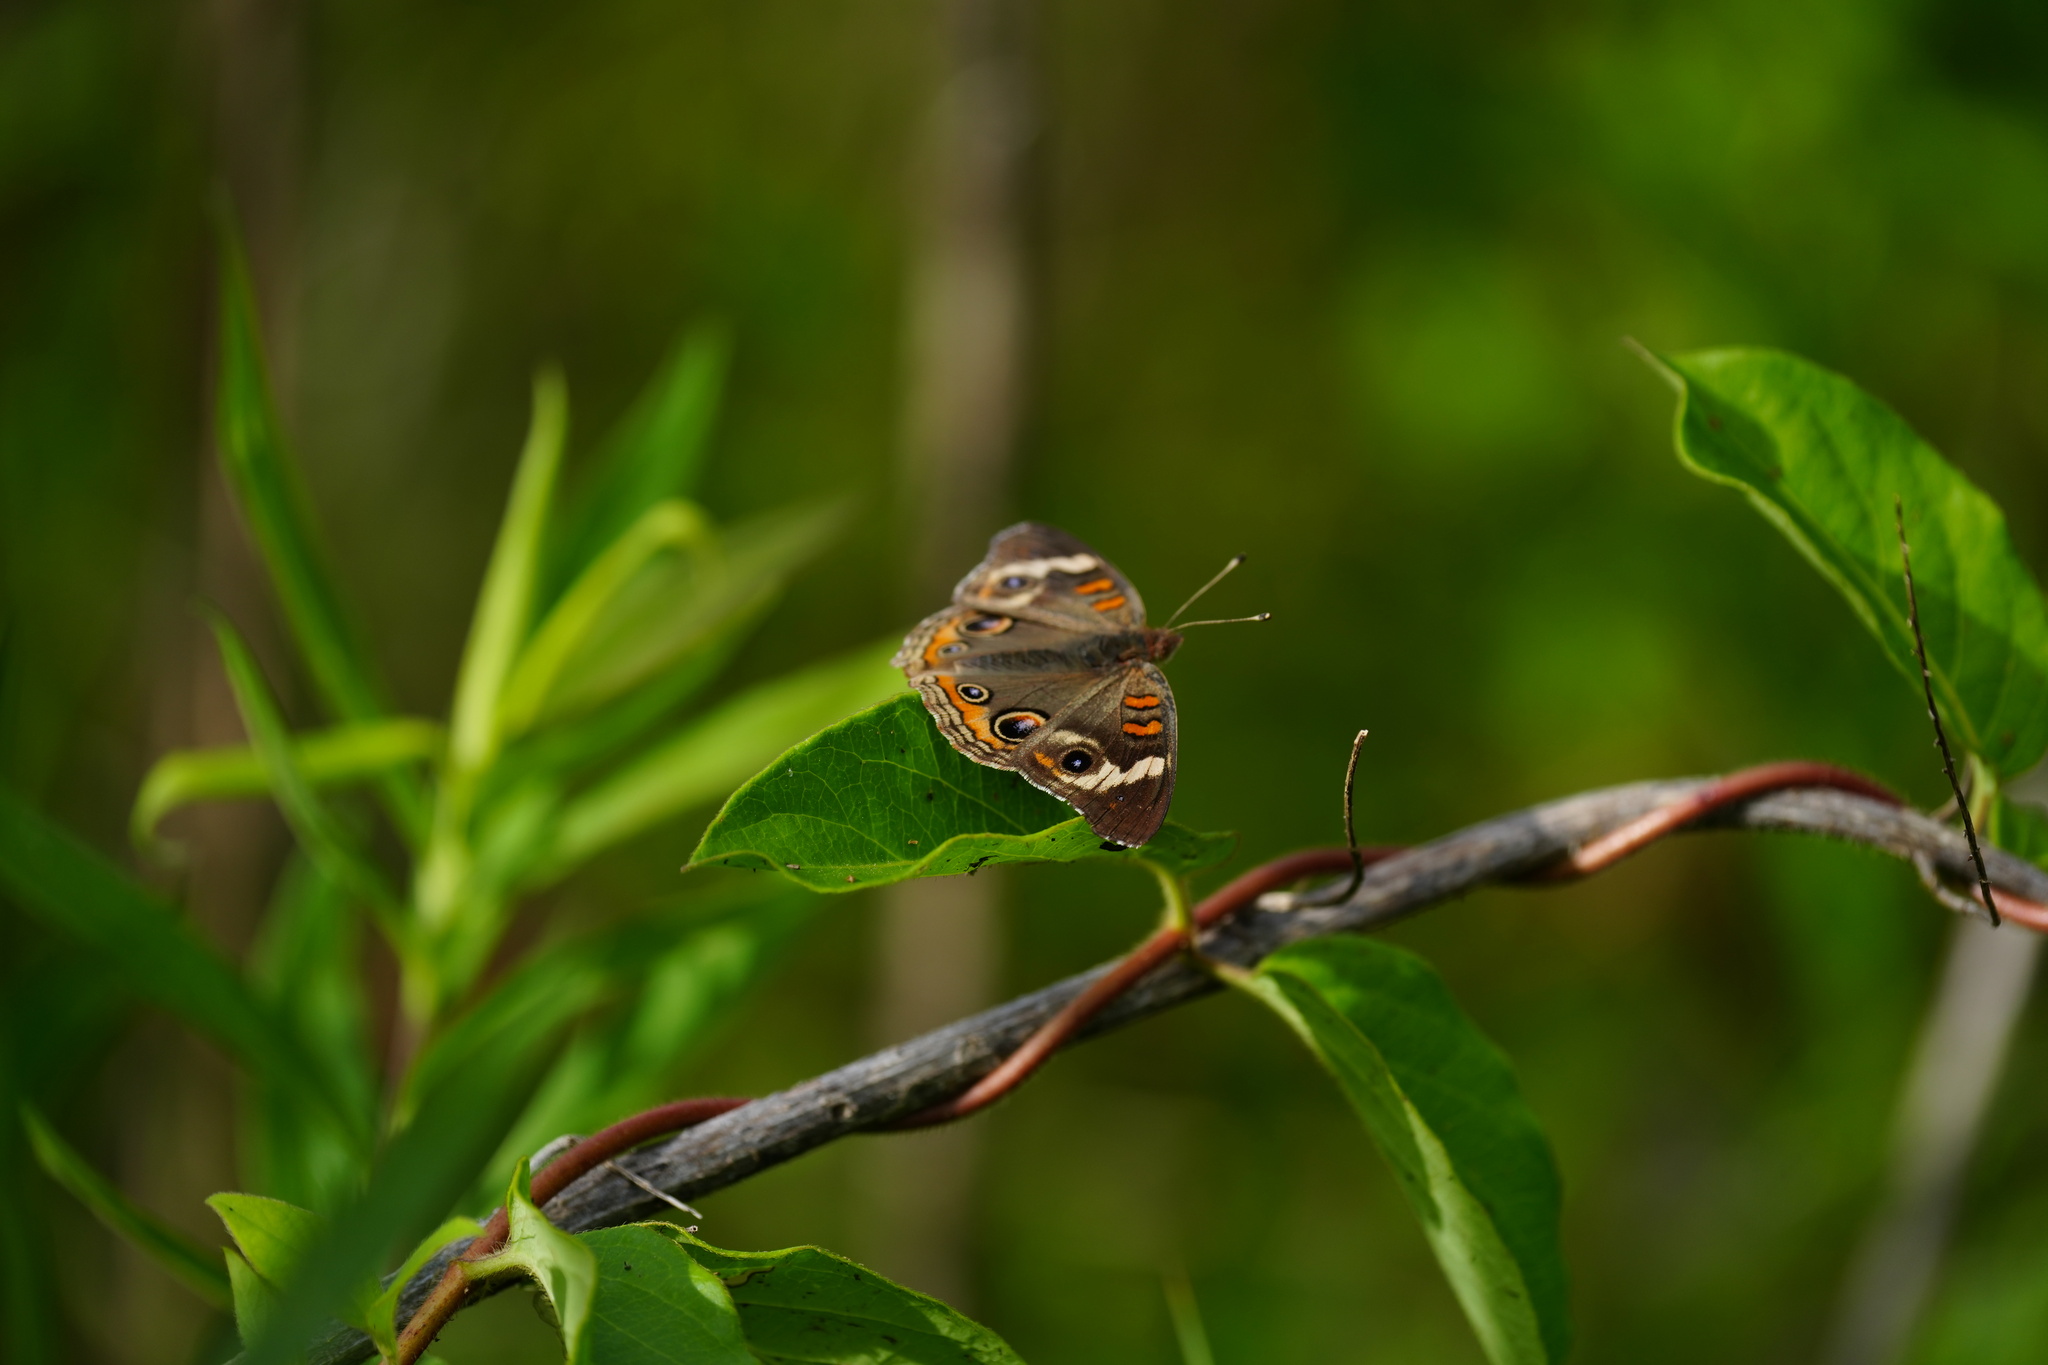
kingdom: Animalia
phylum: Arthropoda
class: Insecta
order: Lepidoptera
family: Nymphalidae
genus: Junonia
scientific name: Junonia coenia
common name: Common buckeye
